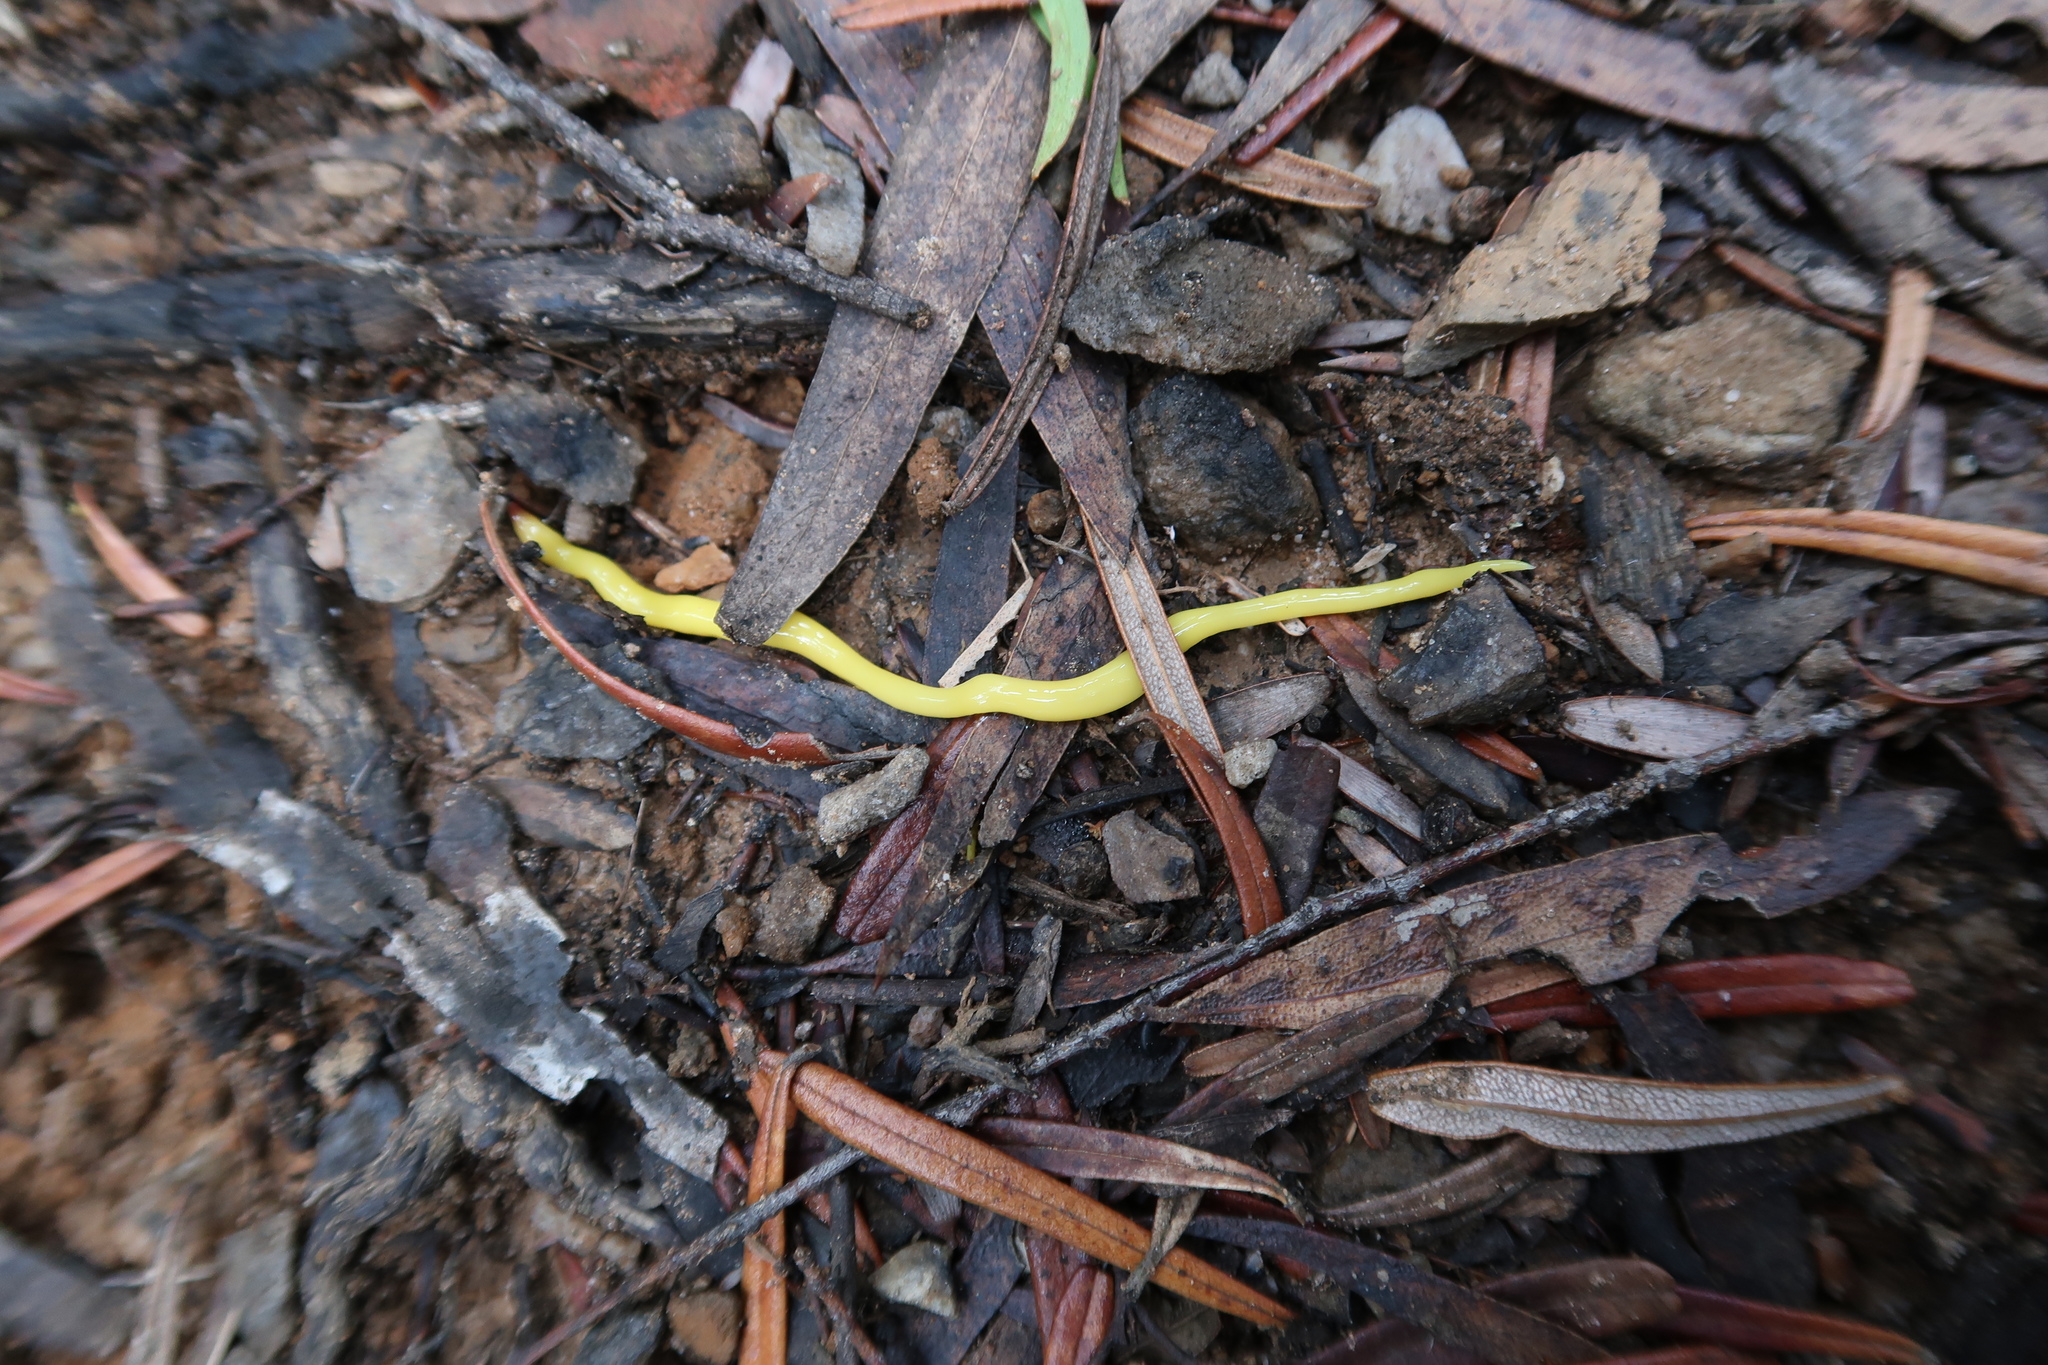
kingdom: Animalia
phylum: Platyhelminthes
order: Tricladida
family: Geoplanidae
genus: Fletchamia
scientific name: Fletchamia sugdeni
